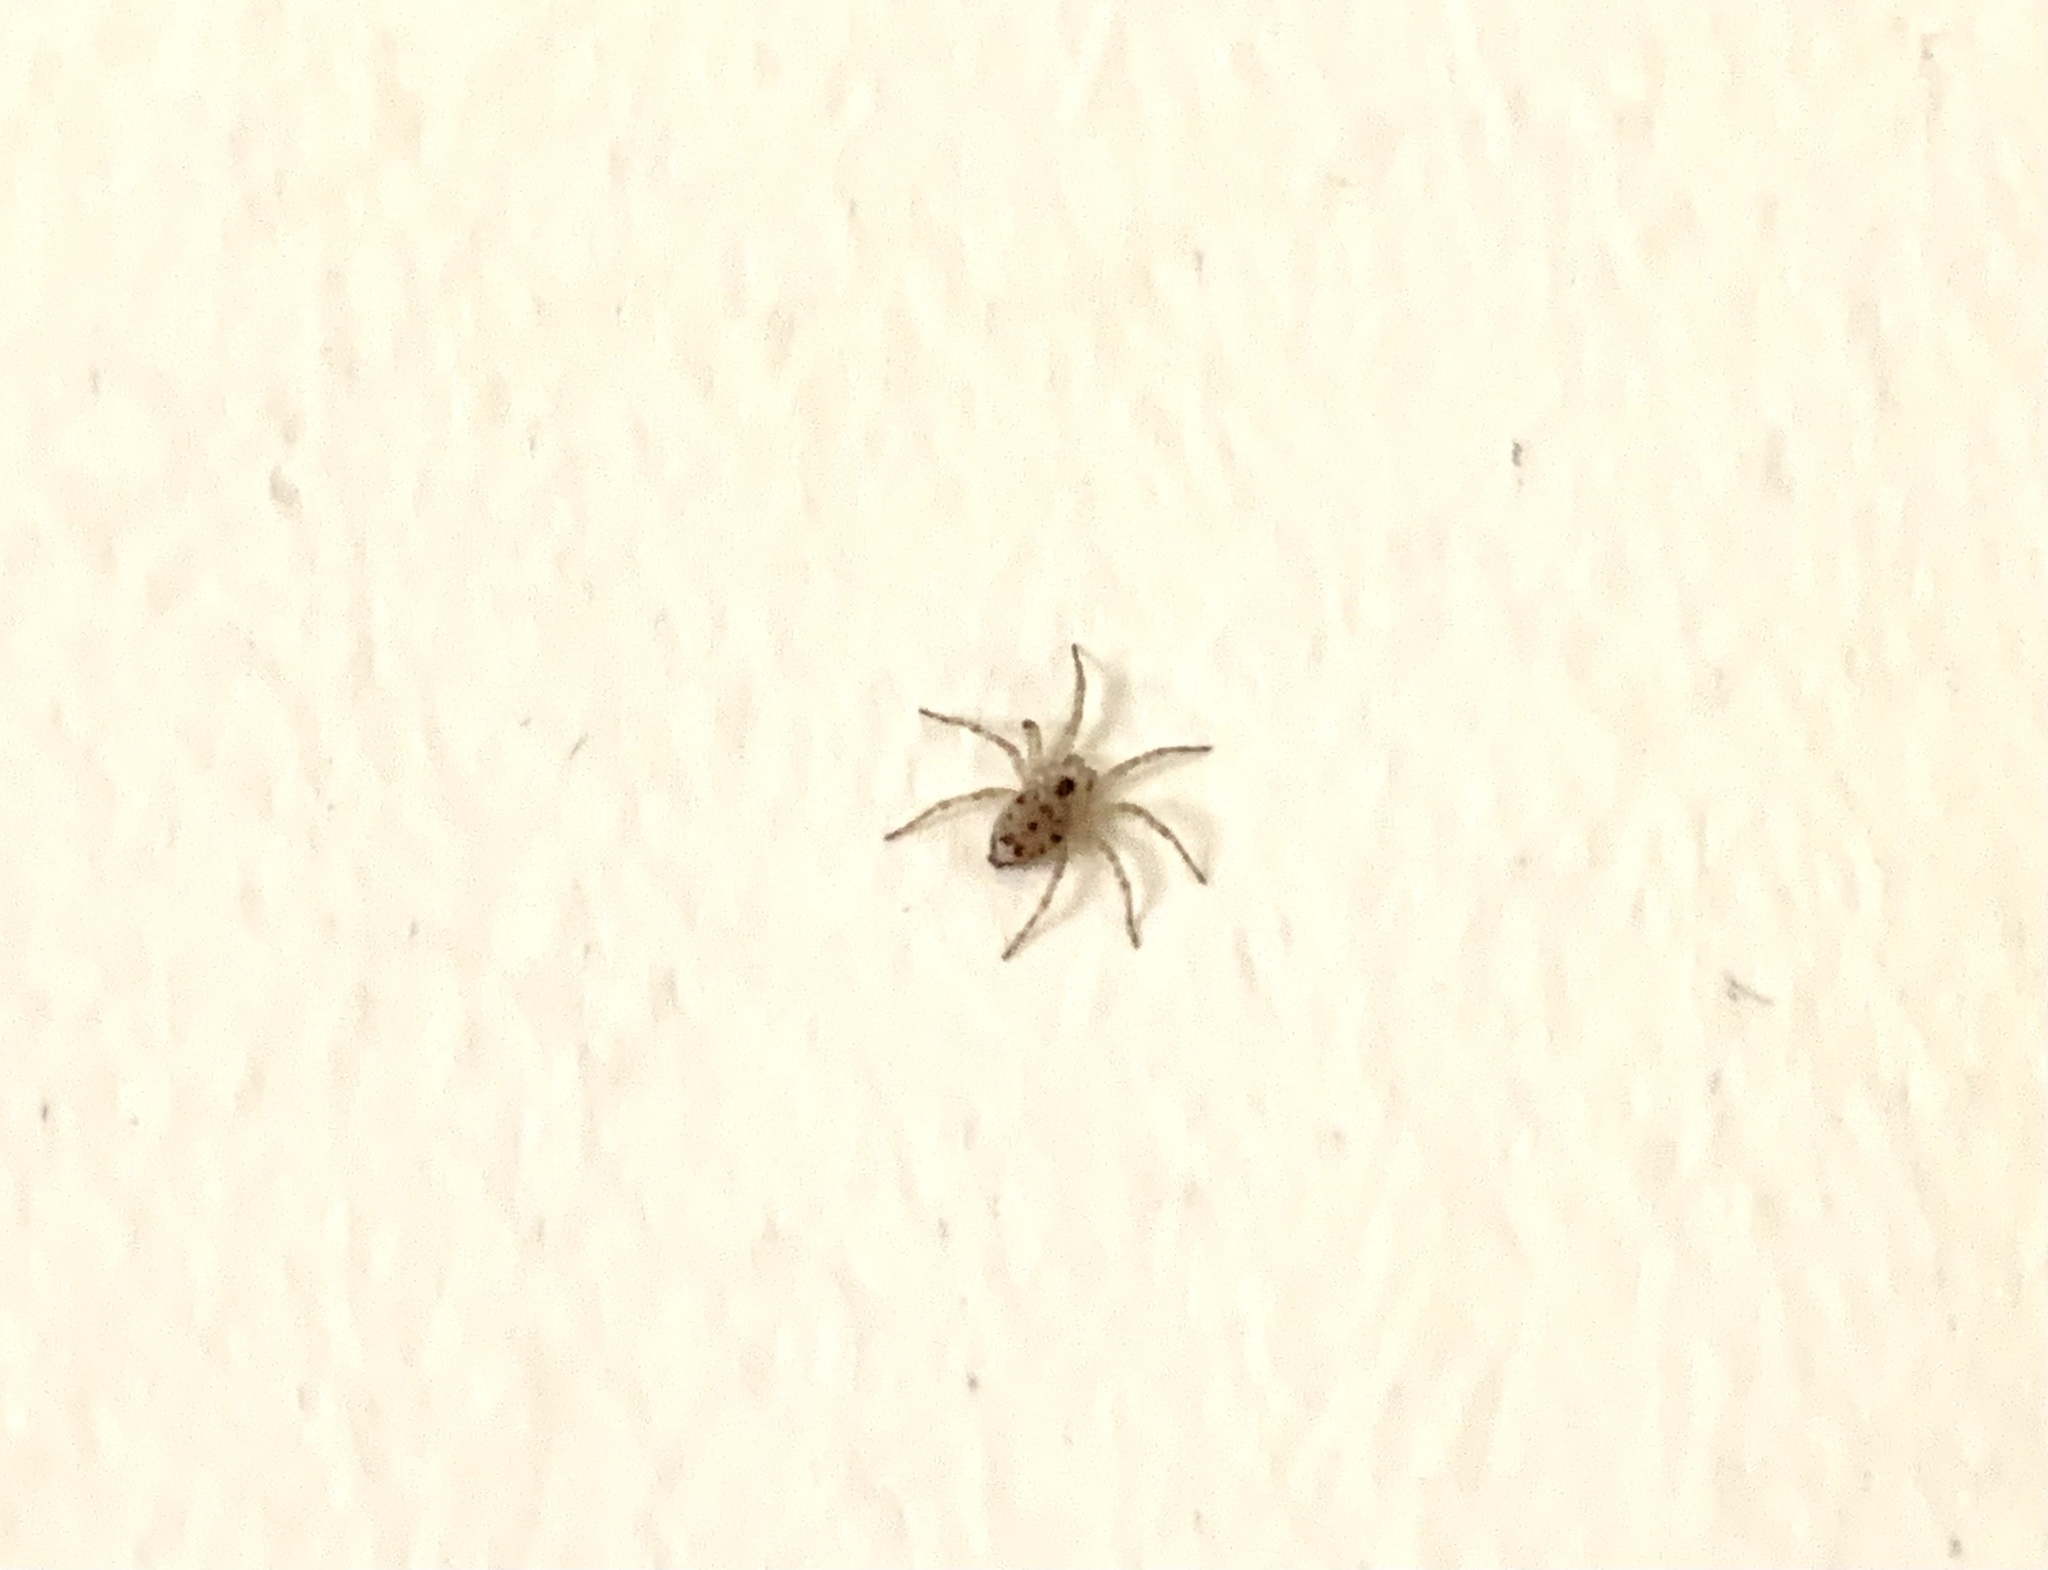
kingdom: Animalia
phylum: Arthropoda
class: Arachnida
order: Araneae
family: Oecobiidae
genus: Oecobius
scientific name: Oecobius navus
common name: Flatmesh weaver
